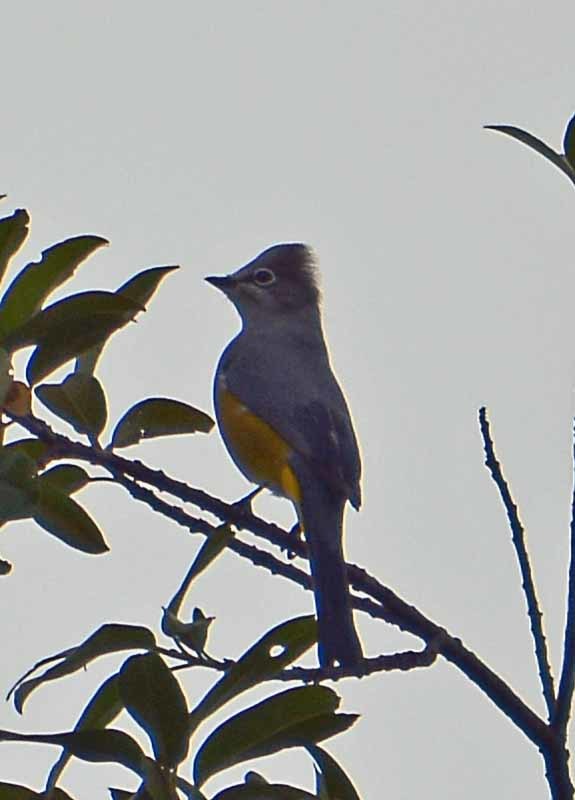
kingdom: Animalia
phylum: Chordata
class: Aves
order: Passeriformes
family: Ptilogonatidae
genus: Ptilogonys
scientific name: Ptilogonys cinereus
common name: Gray silky-flycatcher
